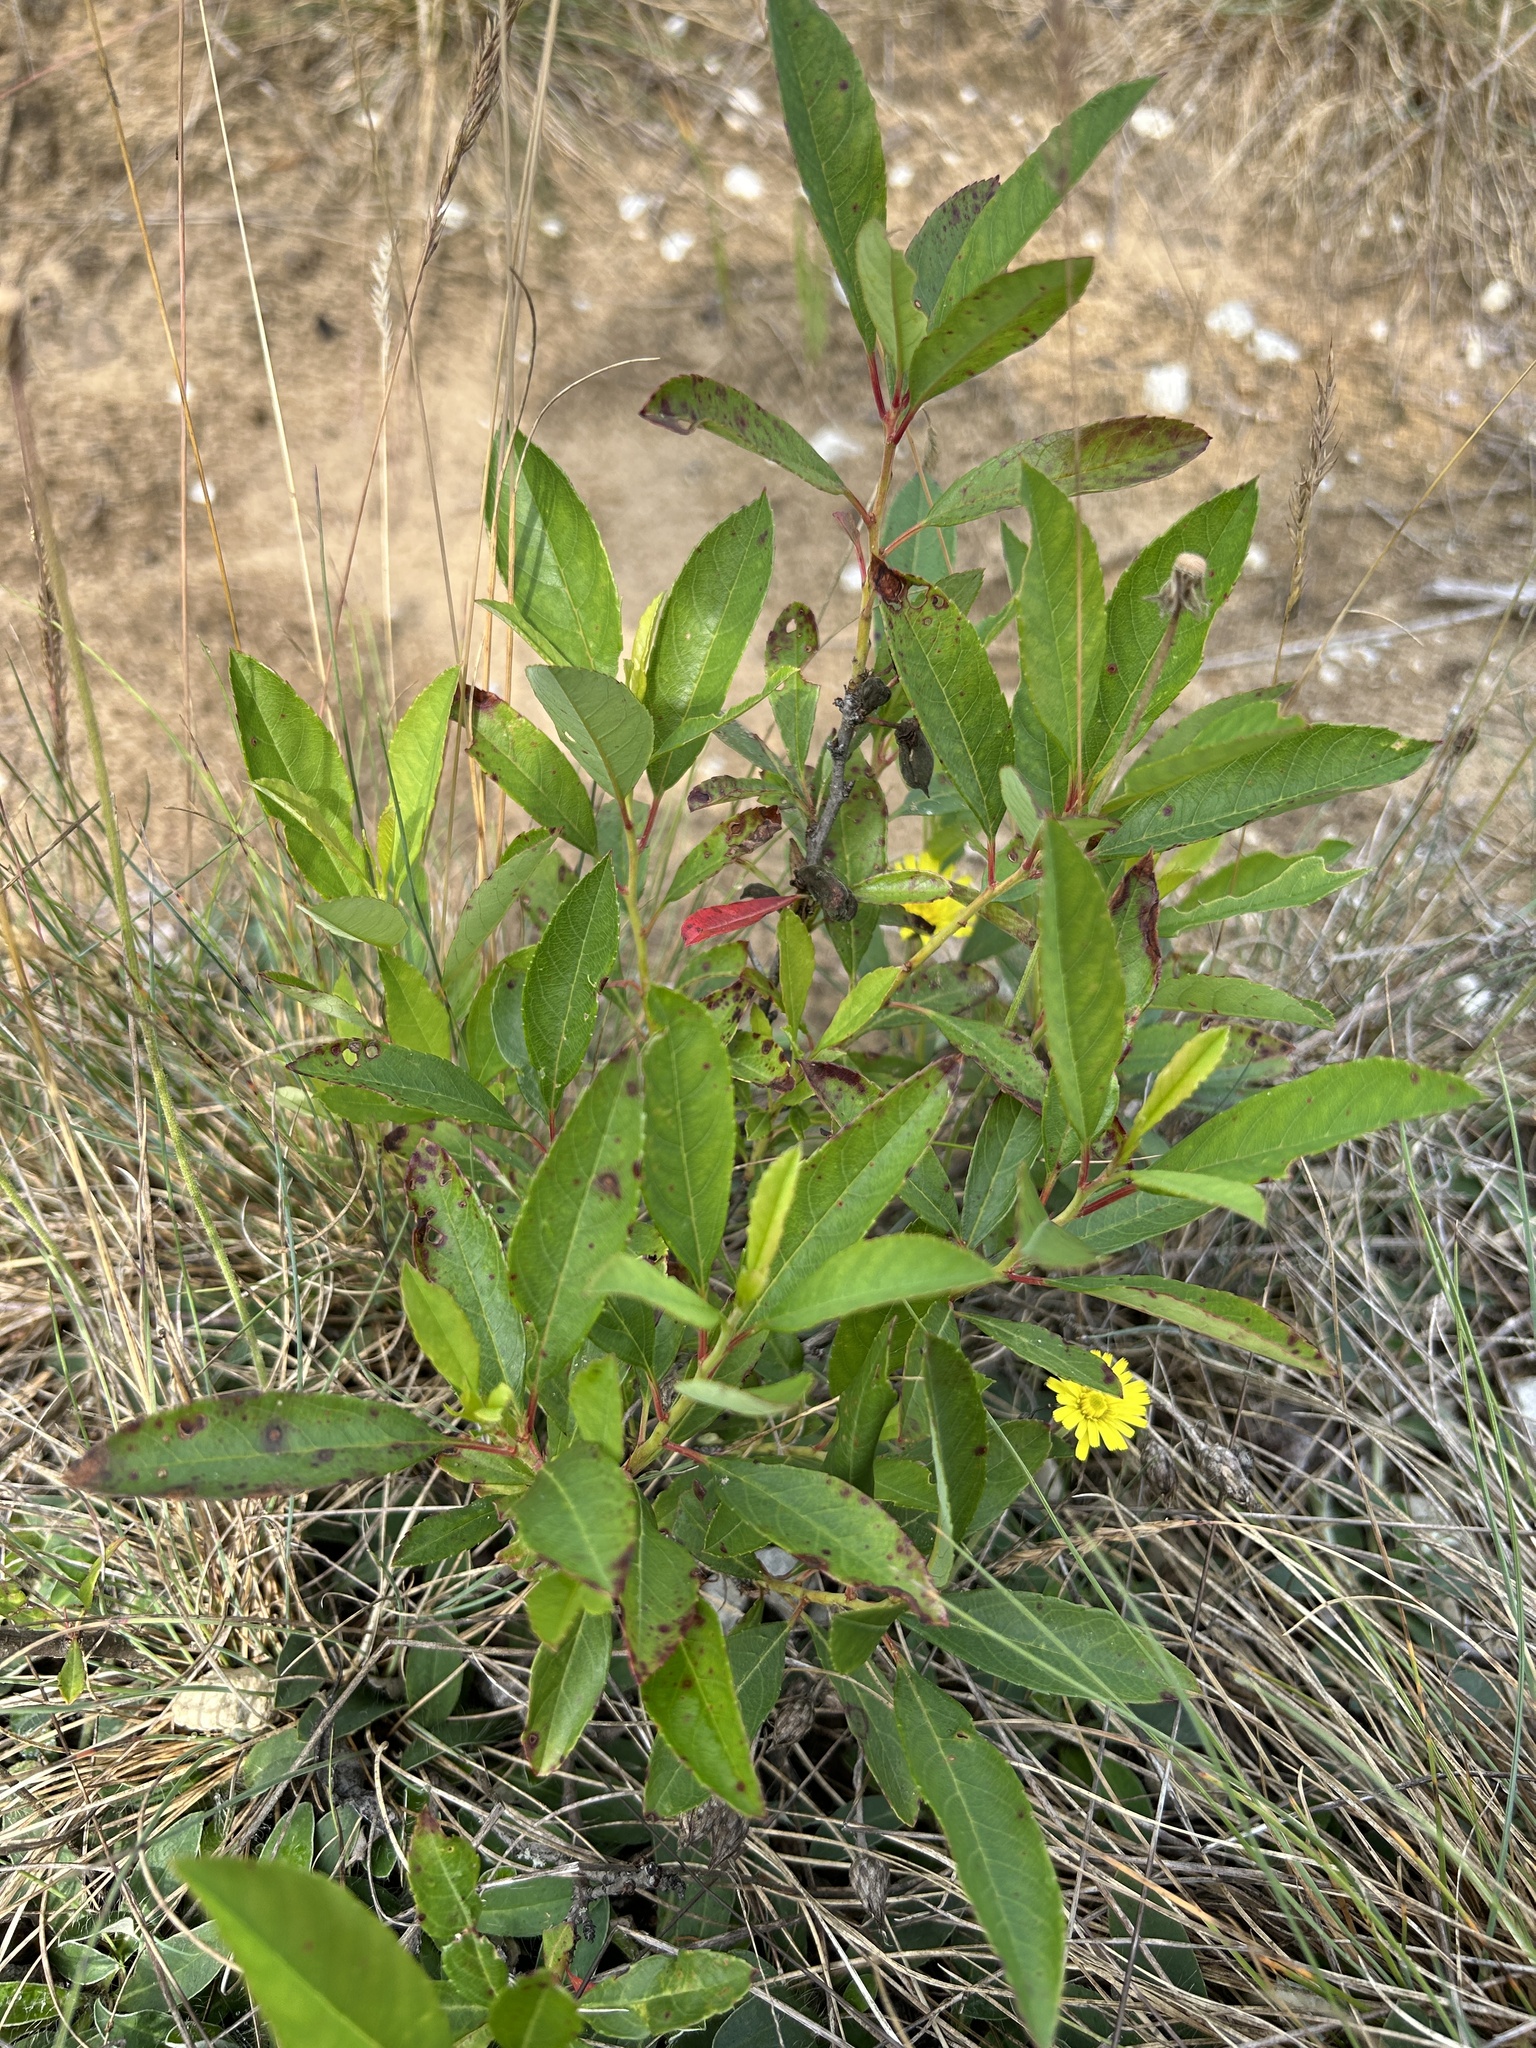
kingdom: Plantae
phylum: Tracheophyta
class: Magnoliopsida
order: Rosales
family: Rosaceae
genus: Prunus
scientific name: Prunus pumila
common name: Dwarf cherry
